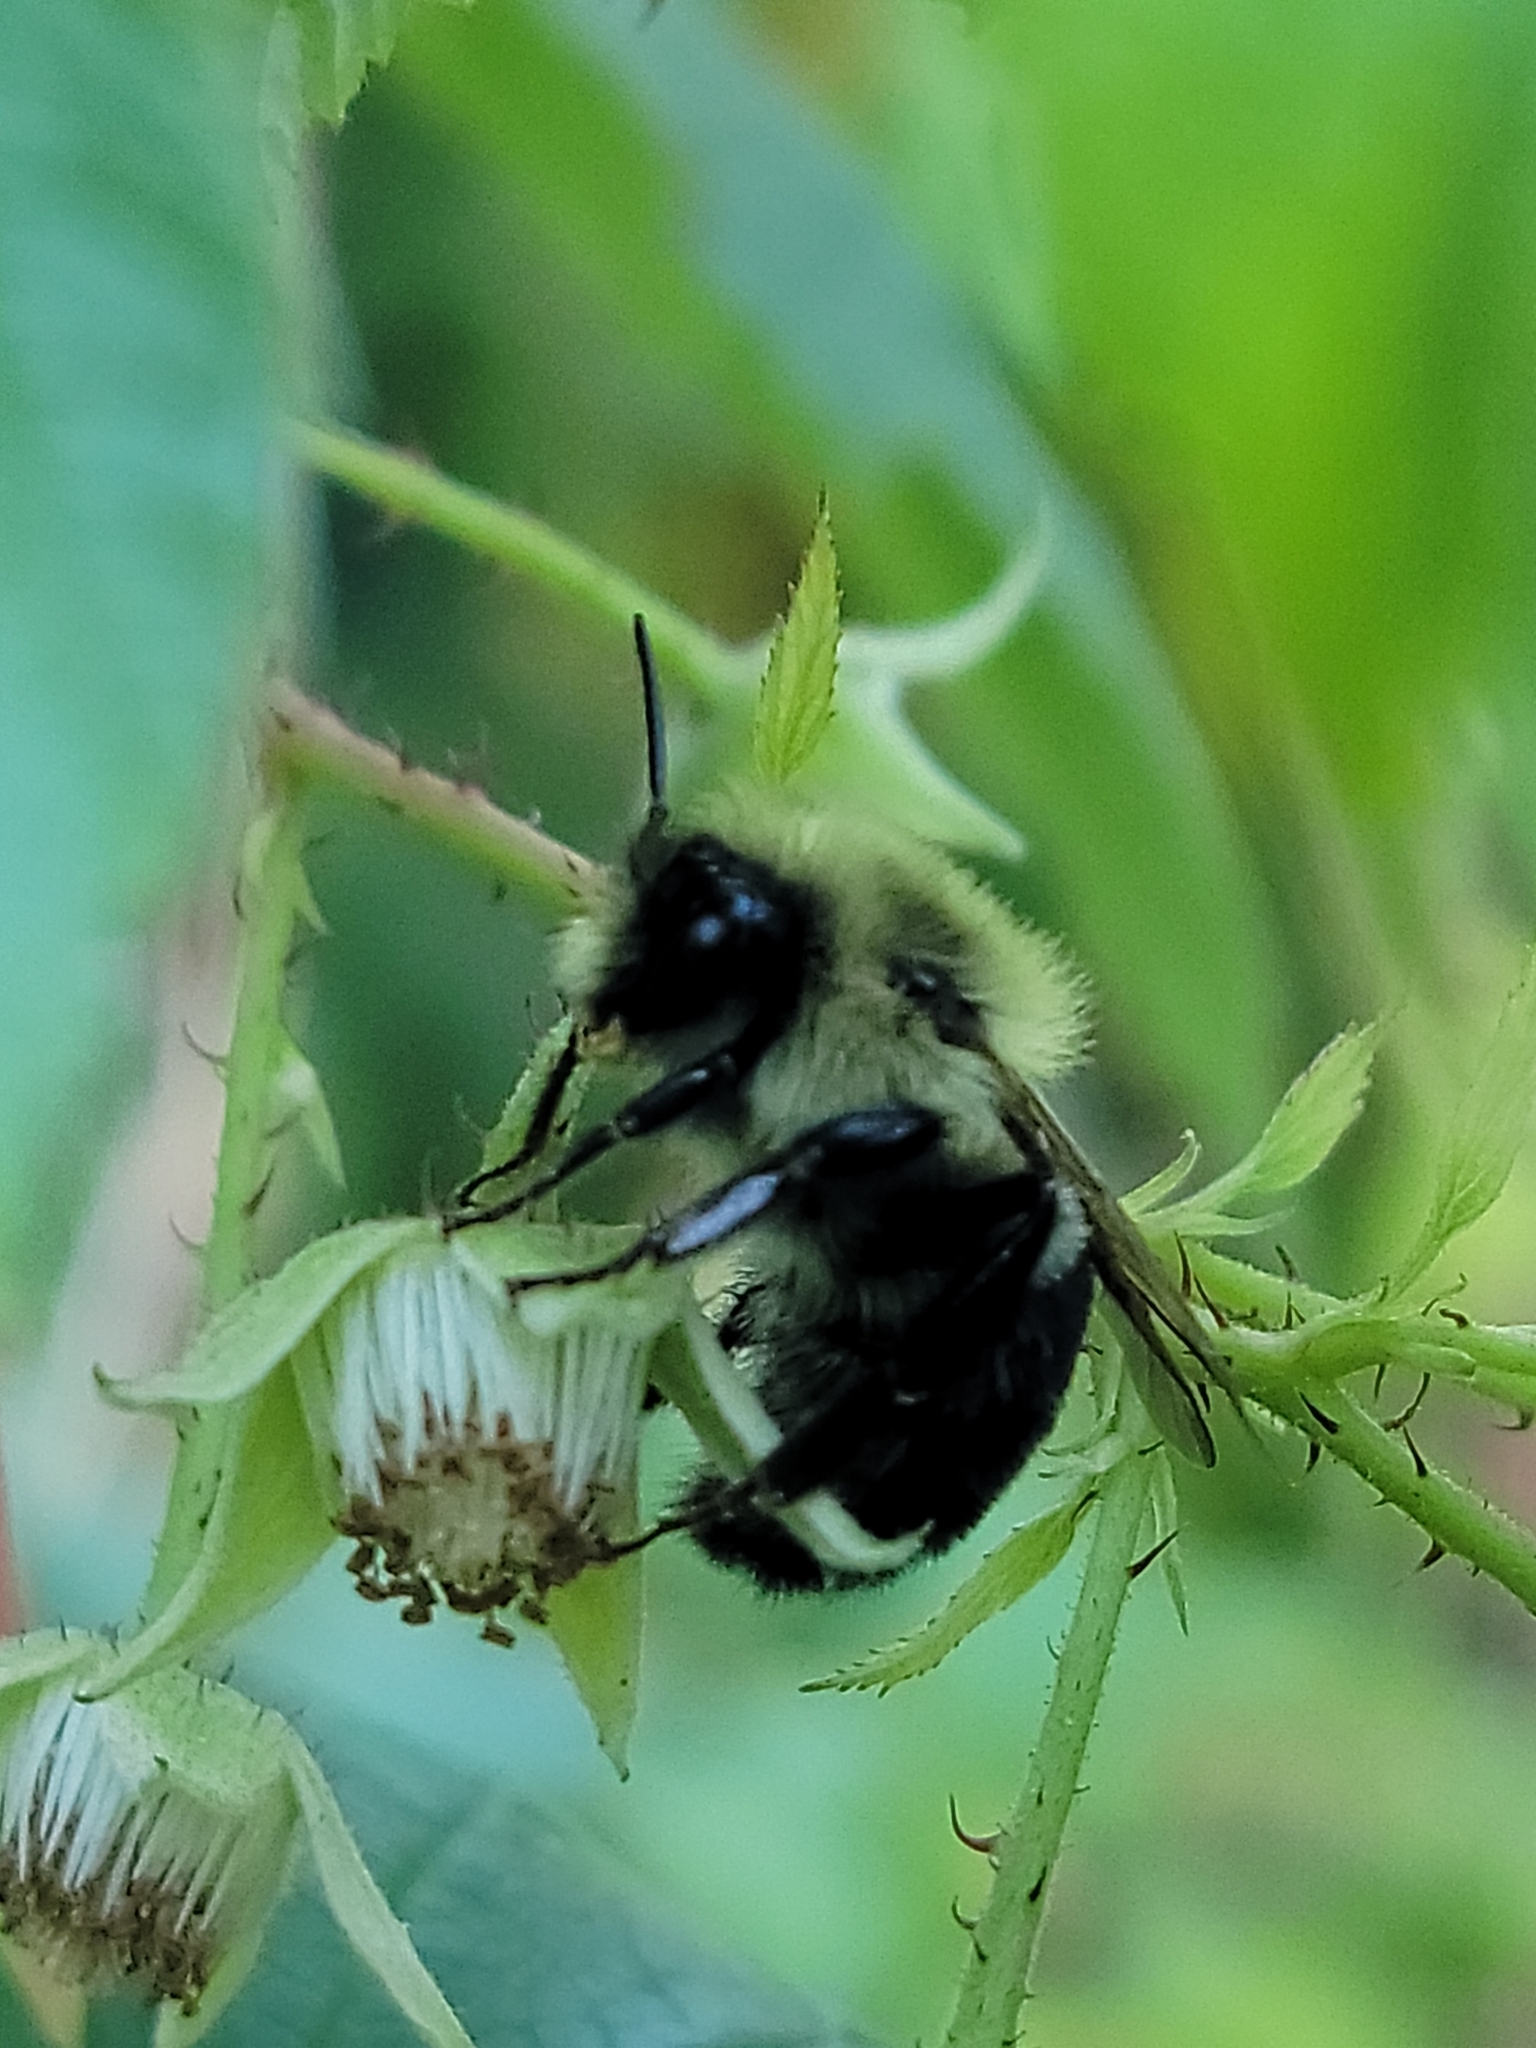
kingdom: Animalia
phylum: Arthropoda
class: Insecta
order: Hymenoptera
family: Apidae
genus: Bombus
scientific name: Bombus impatiens
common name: Common eastern bumble bee
